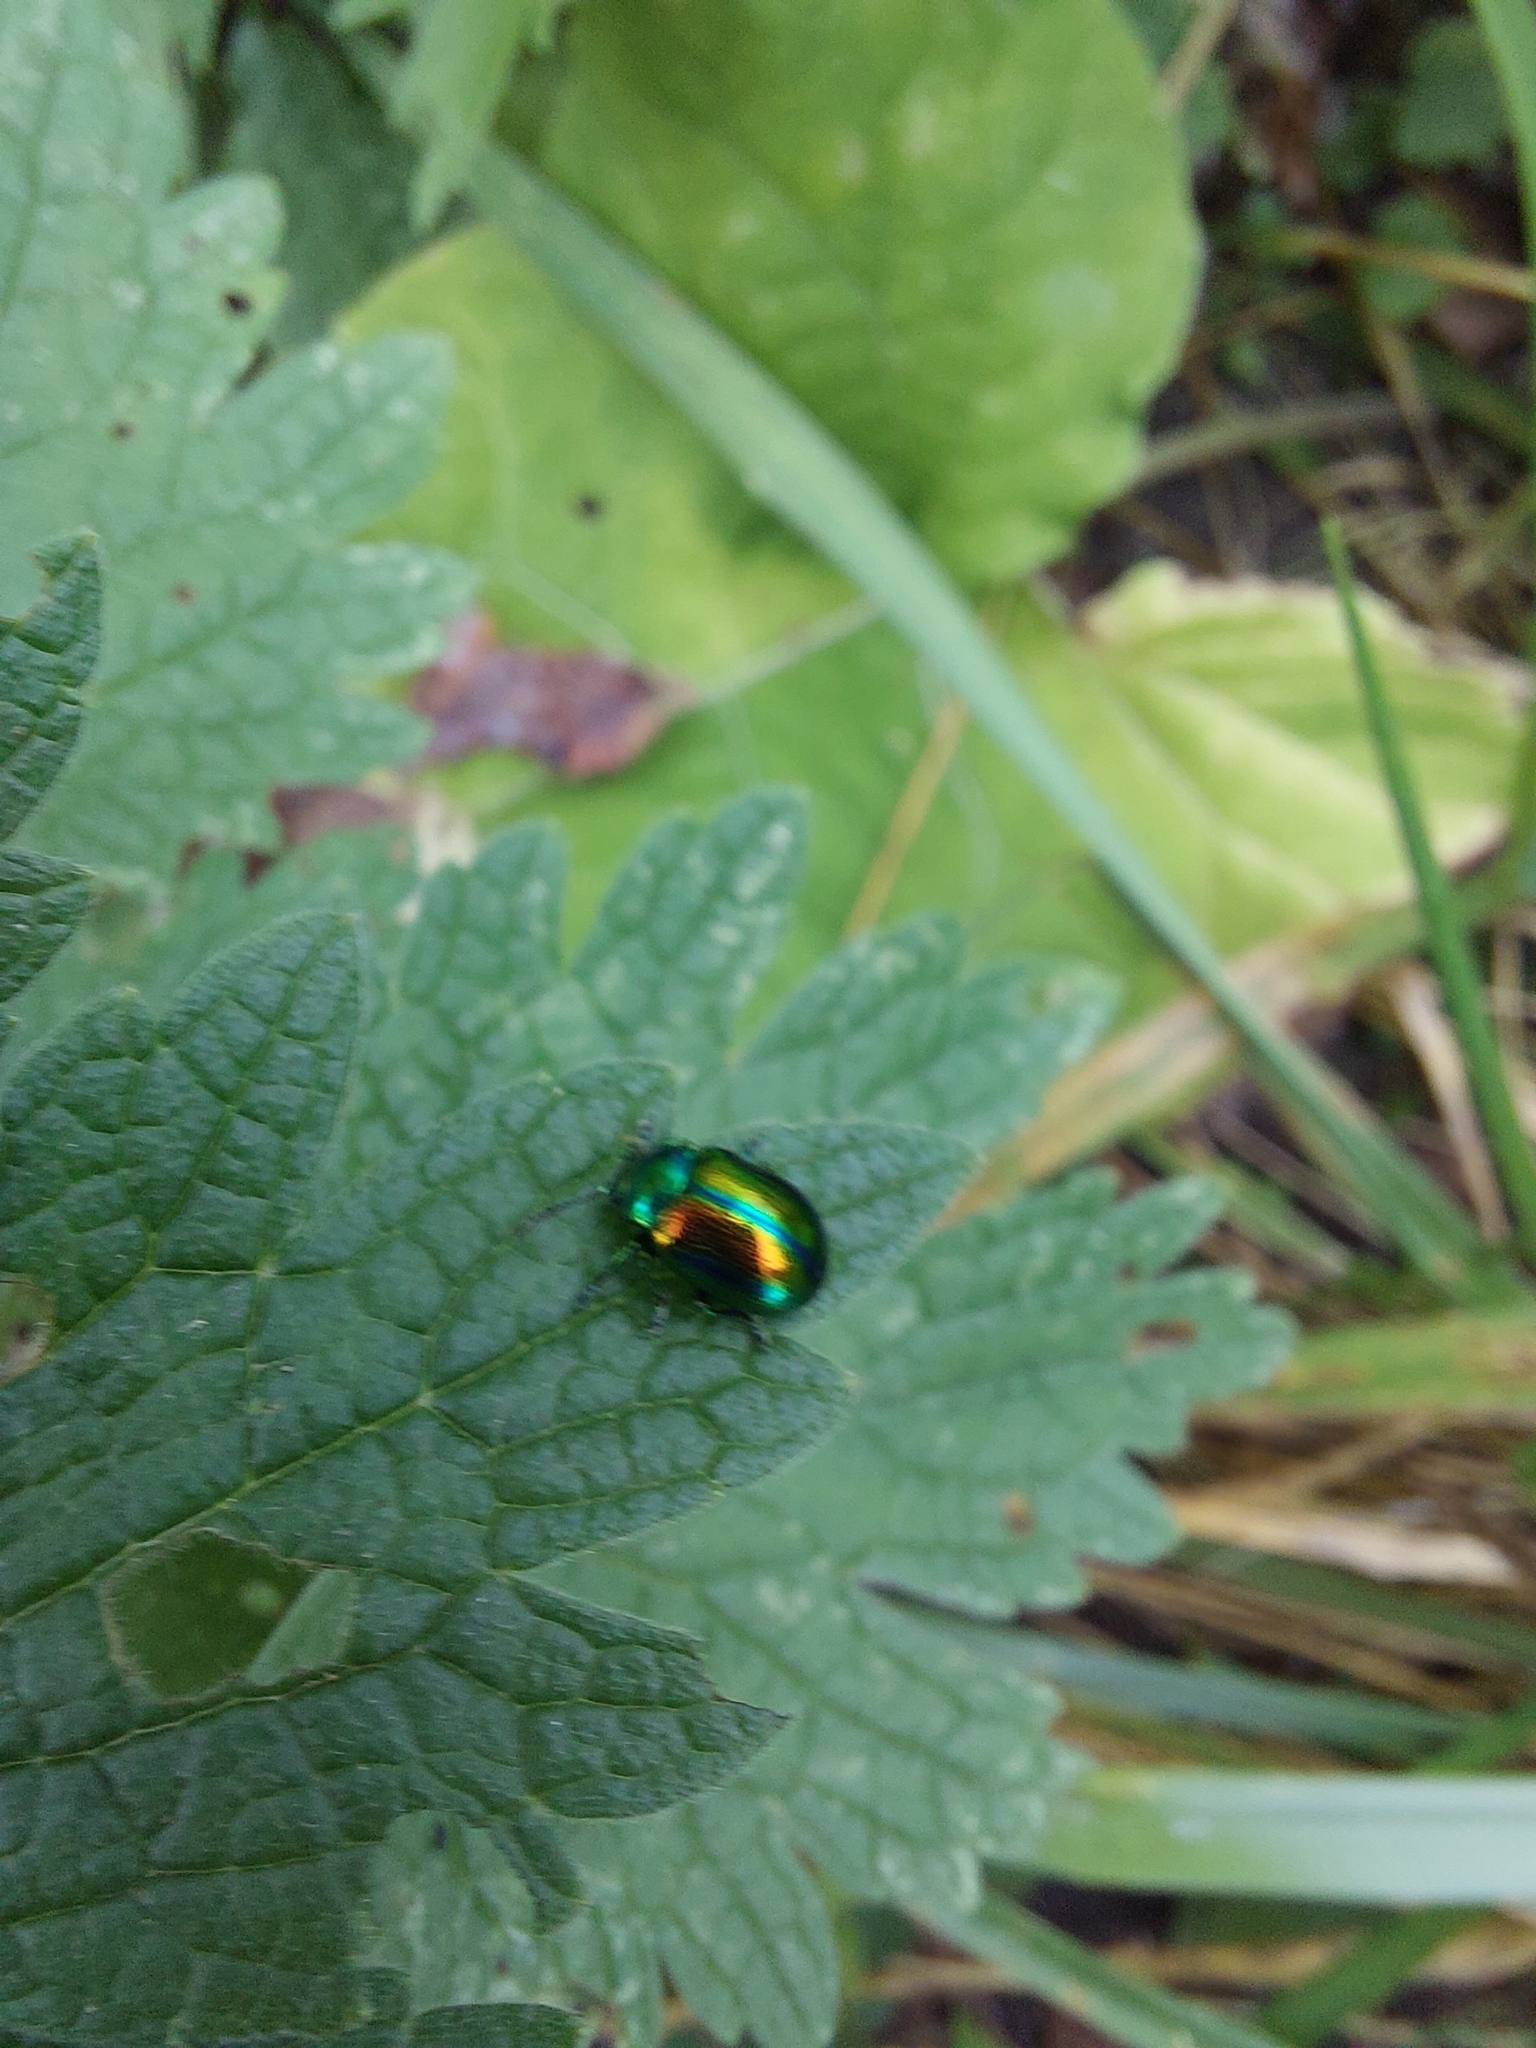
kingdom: Animalia
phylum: Arthropoda
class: Insecta
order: Coleoptera
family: Chrysomelidae
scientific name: Chrysomelidae
